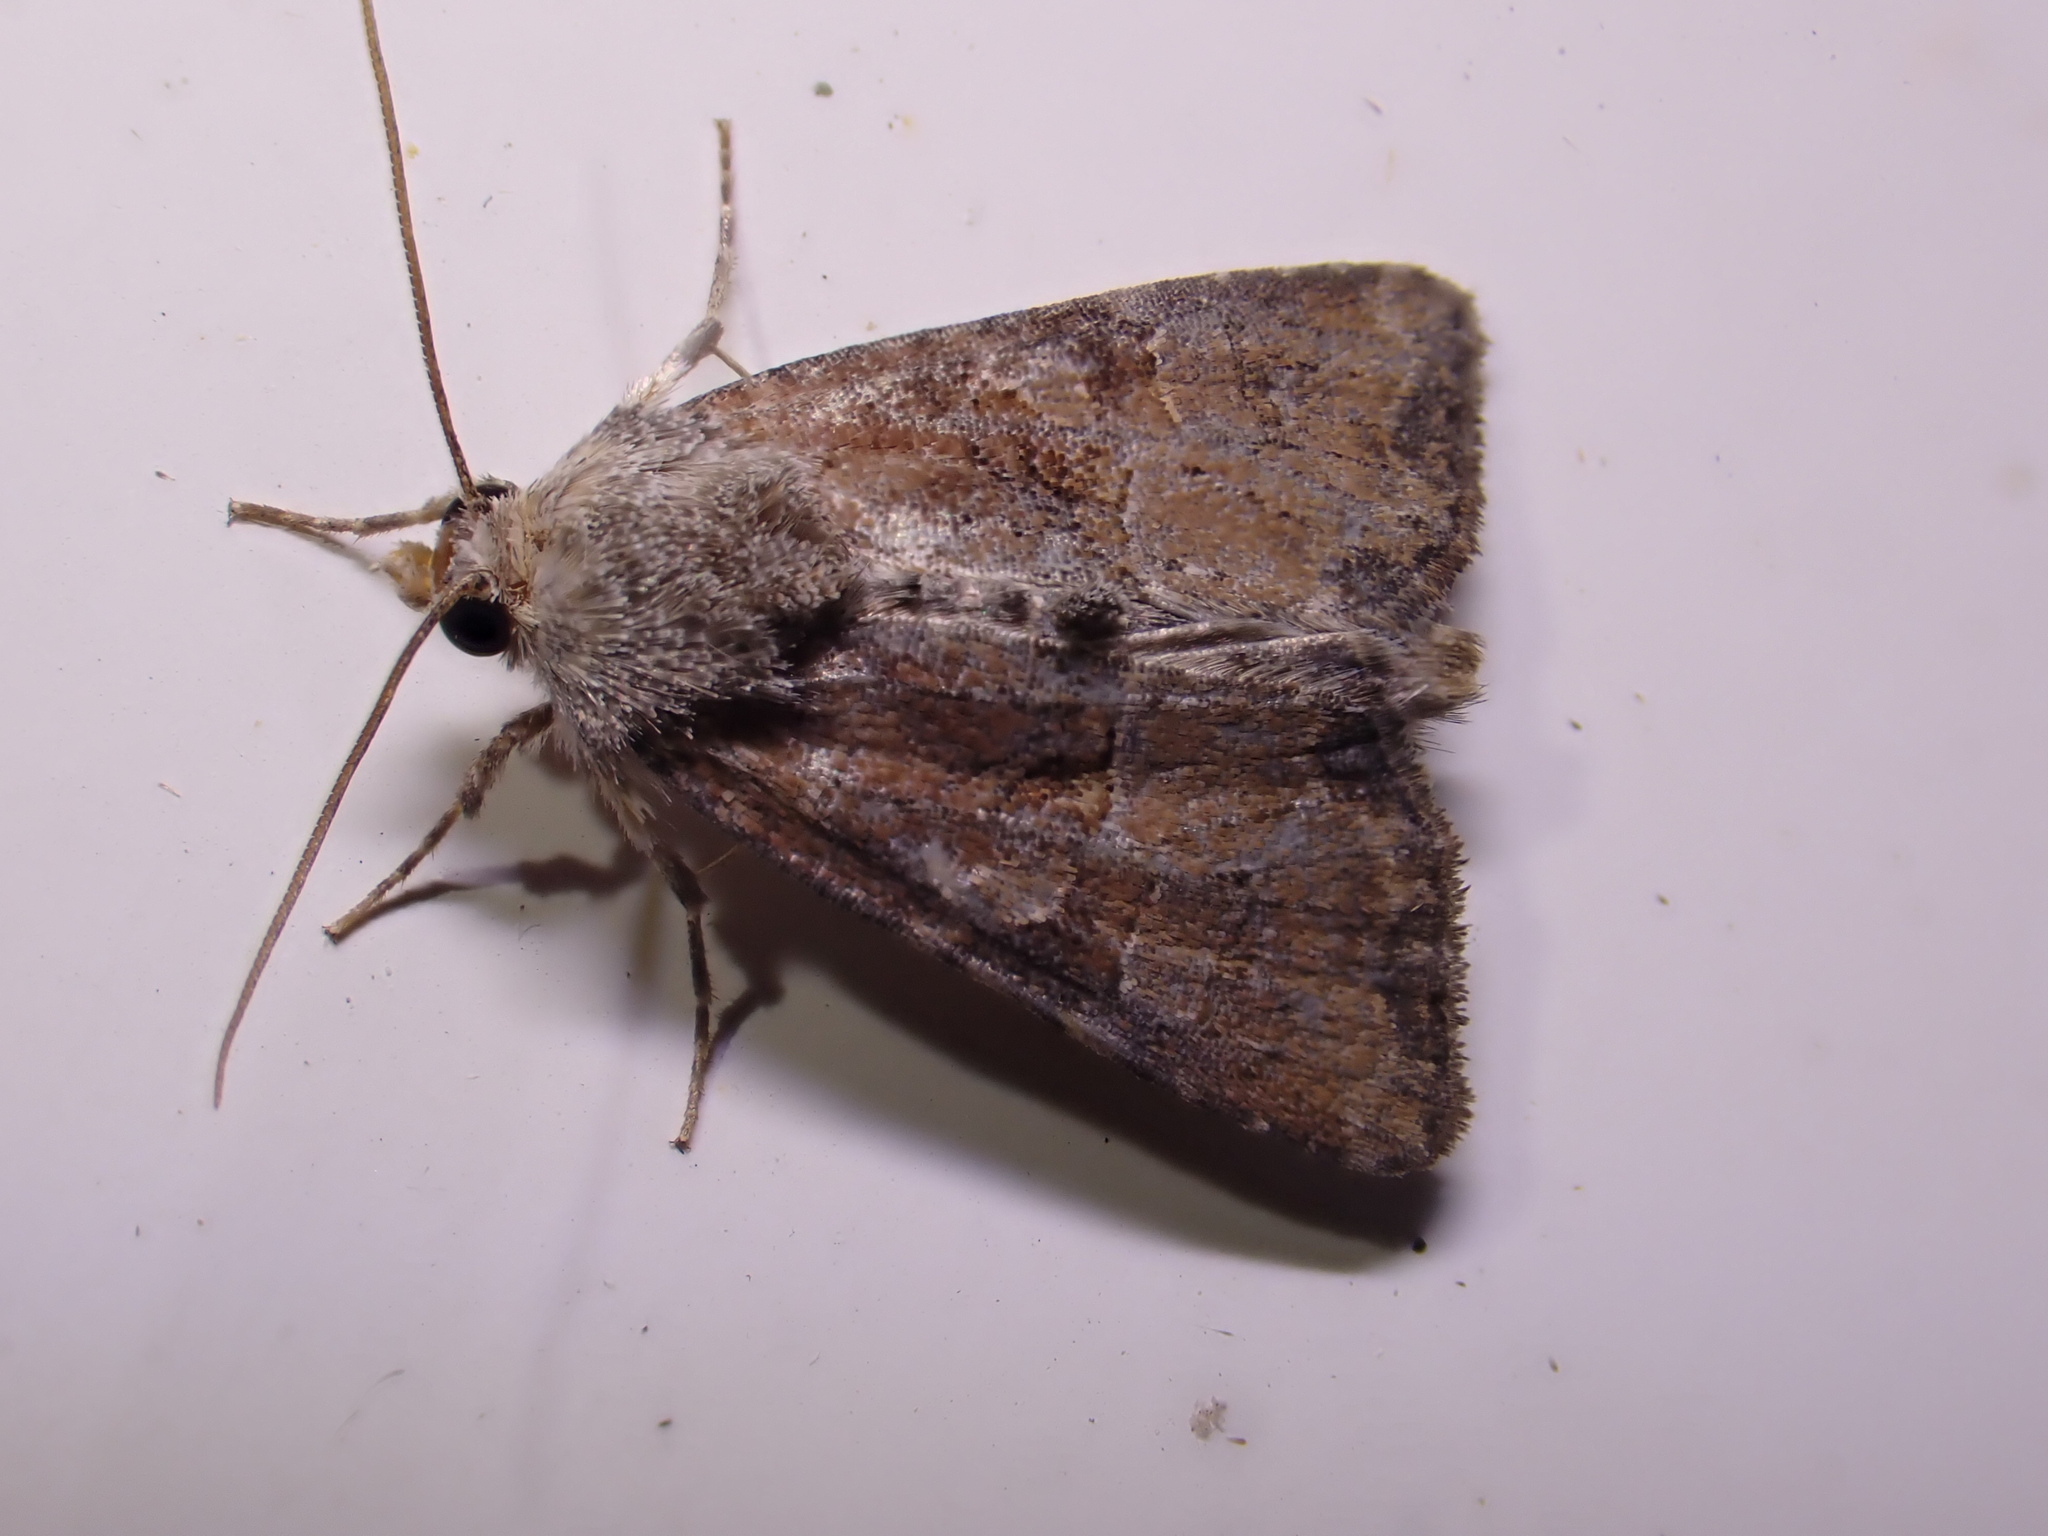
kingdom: Animalia
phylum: Arthropoda
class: Insecta
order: Lepidoptera
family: Noctuidae
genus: Mesoligia
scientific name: Mesoligia furuncula
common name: Cloaked minor
